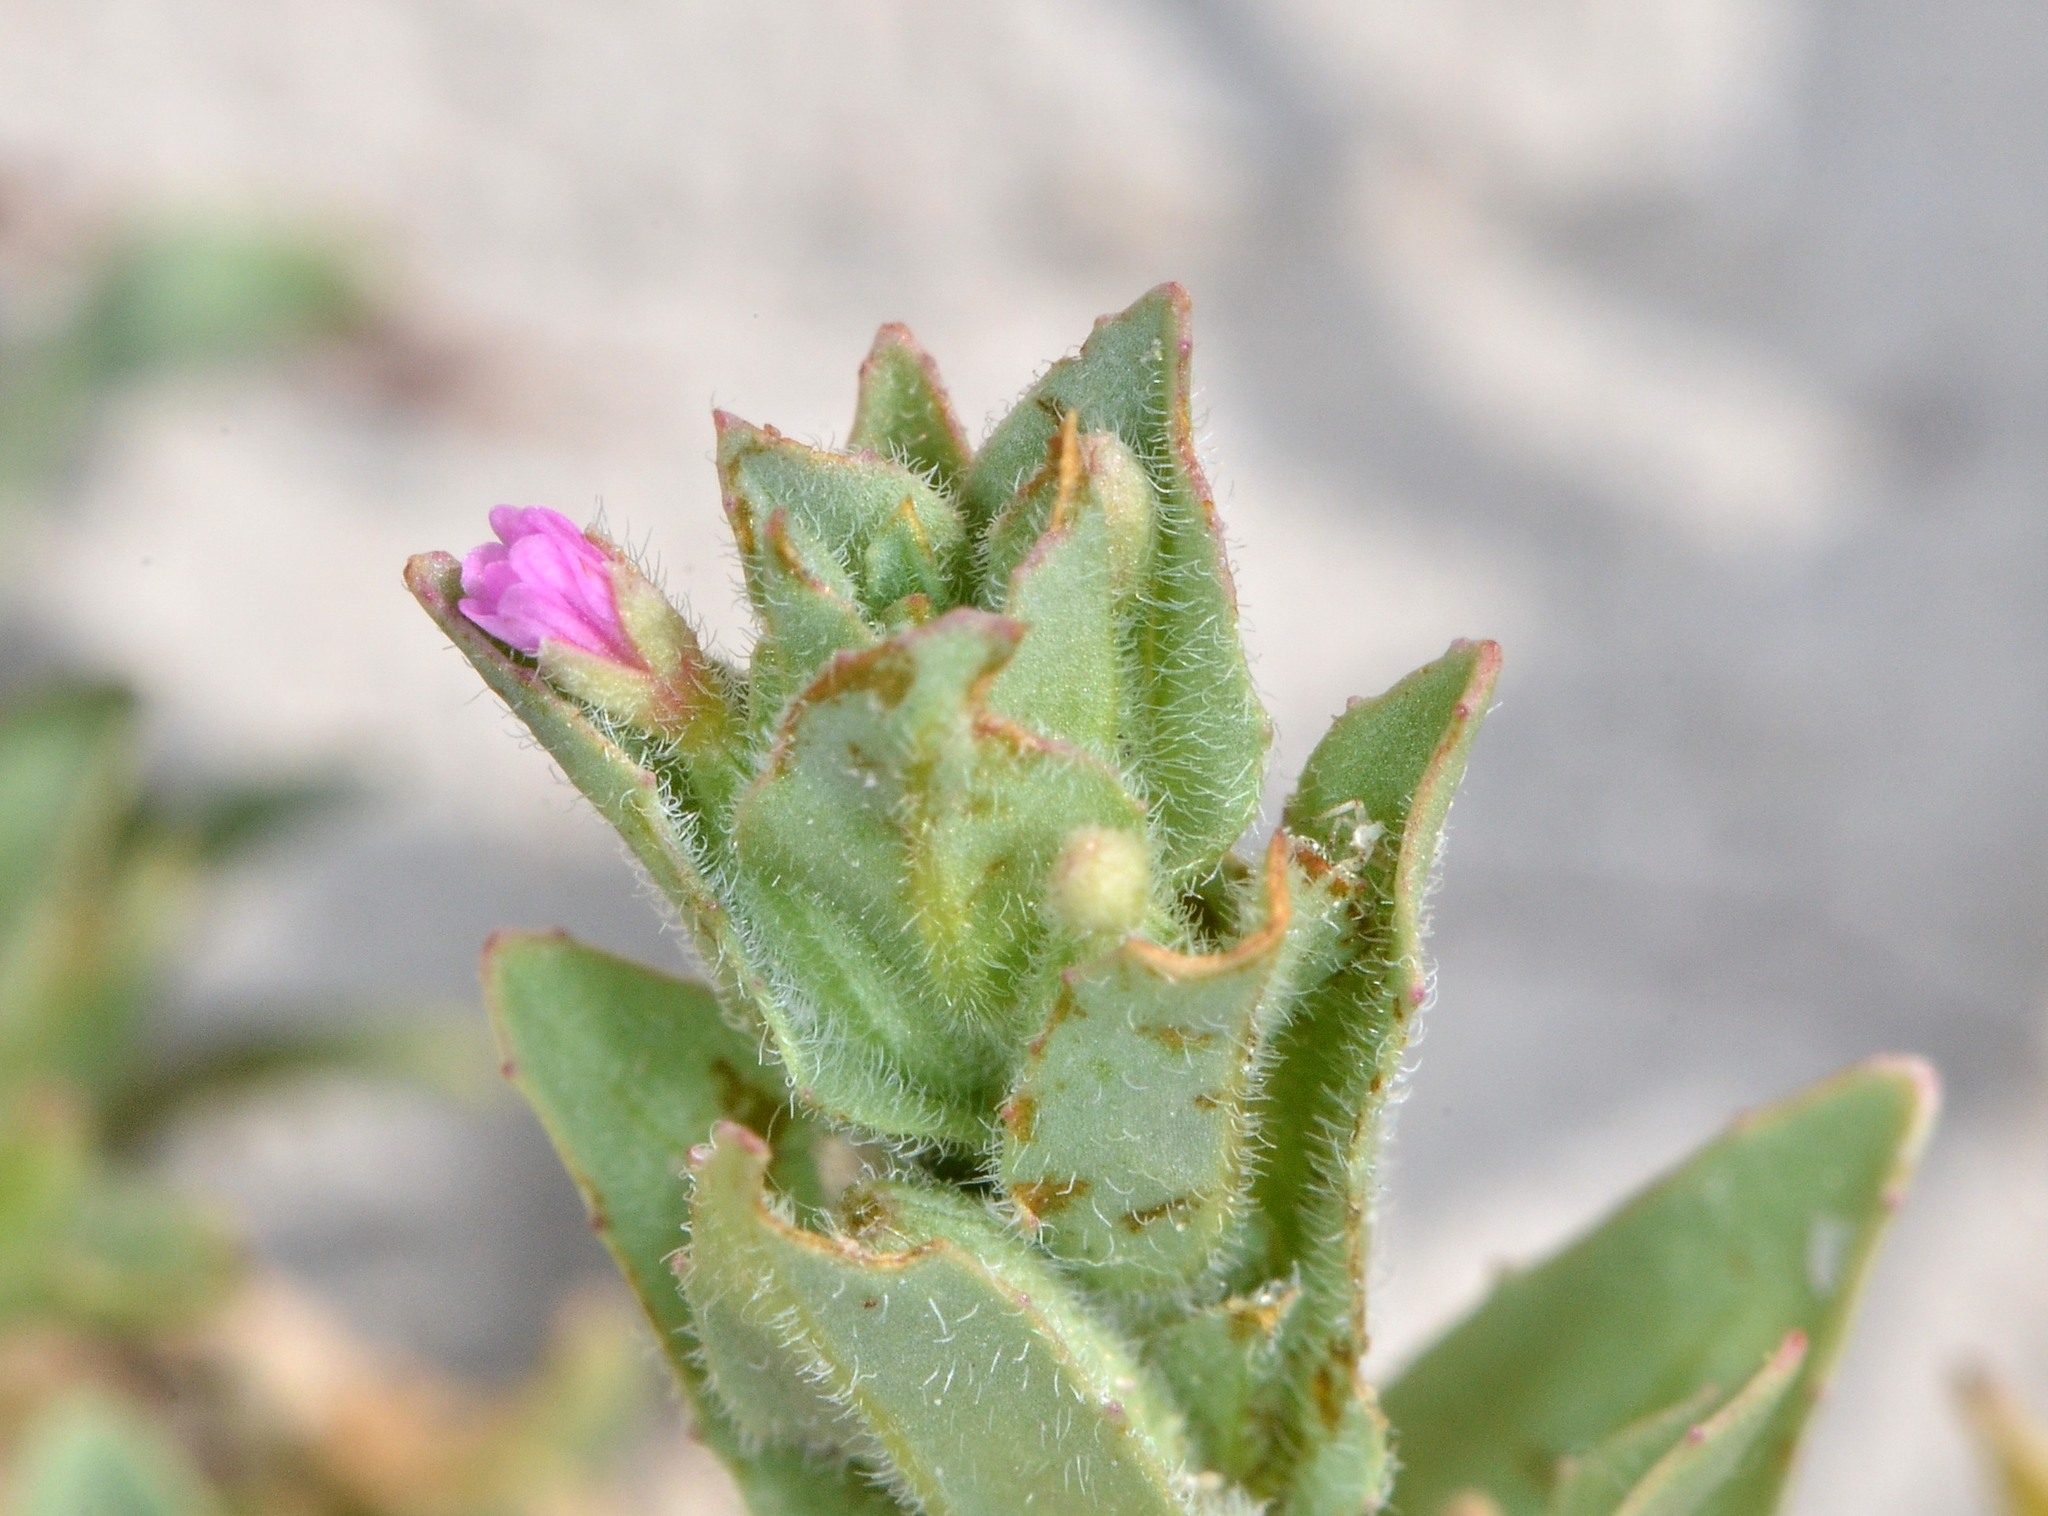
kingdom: Plantae
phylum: Tracheophyta
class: Magnoliopsida
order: Myrtales
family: Onagraceae
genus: Epilobium
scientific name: Epilobium densiflorum
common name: Dense spike-primrose
